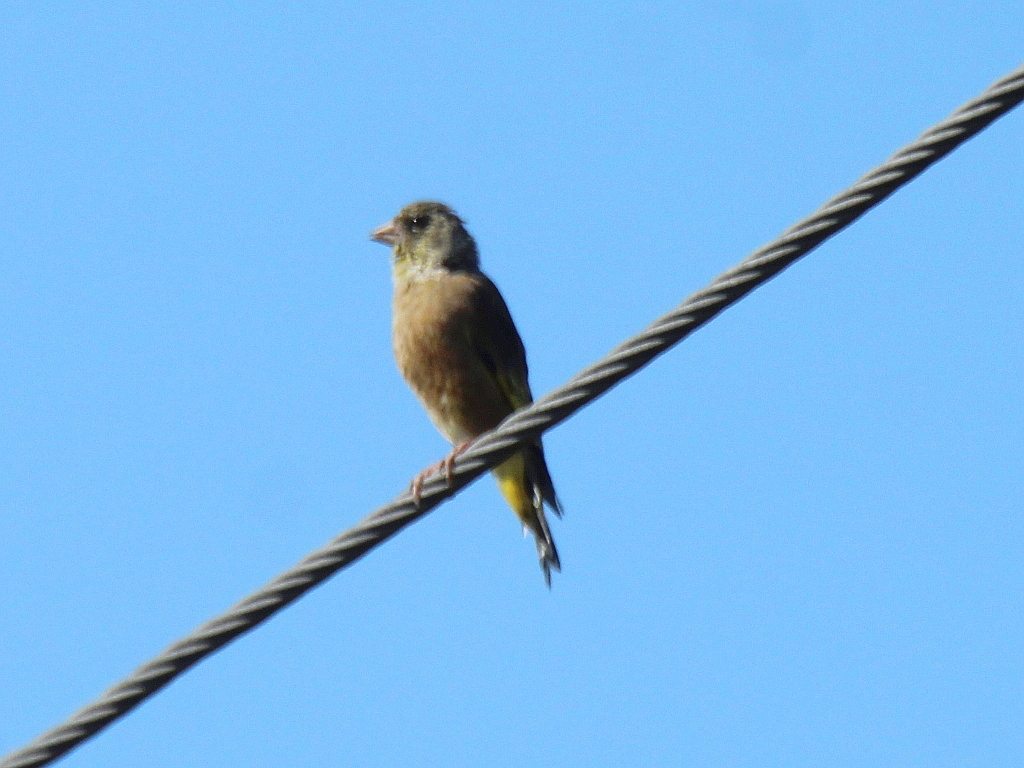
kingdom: Plantae
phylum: Tracheophyta
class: Liliopsida
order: Poales
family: Poaceae
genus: Chloris
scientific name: Chloris sinica
